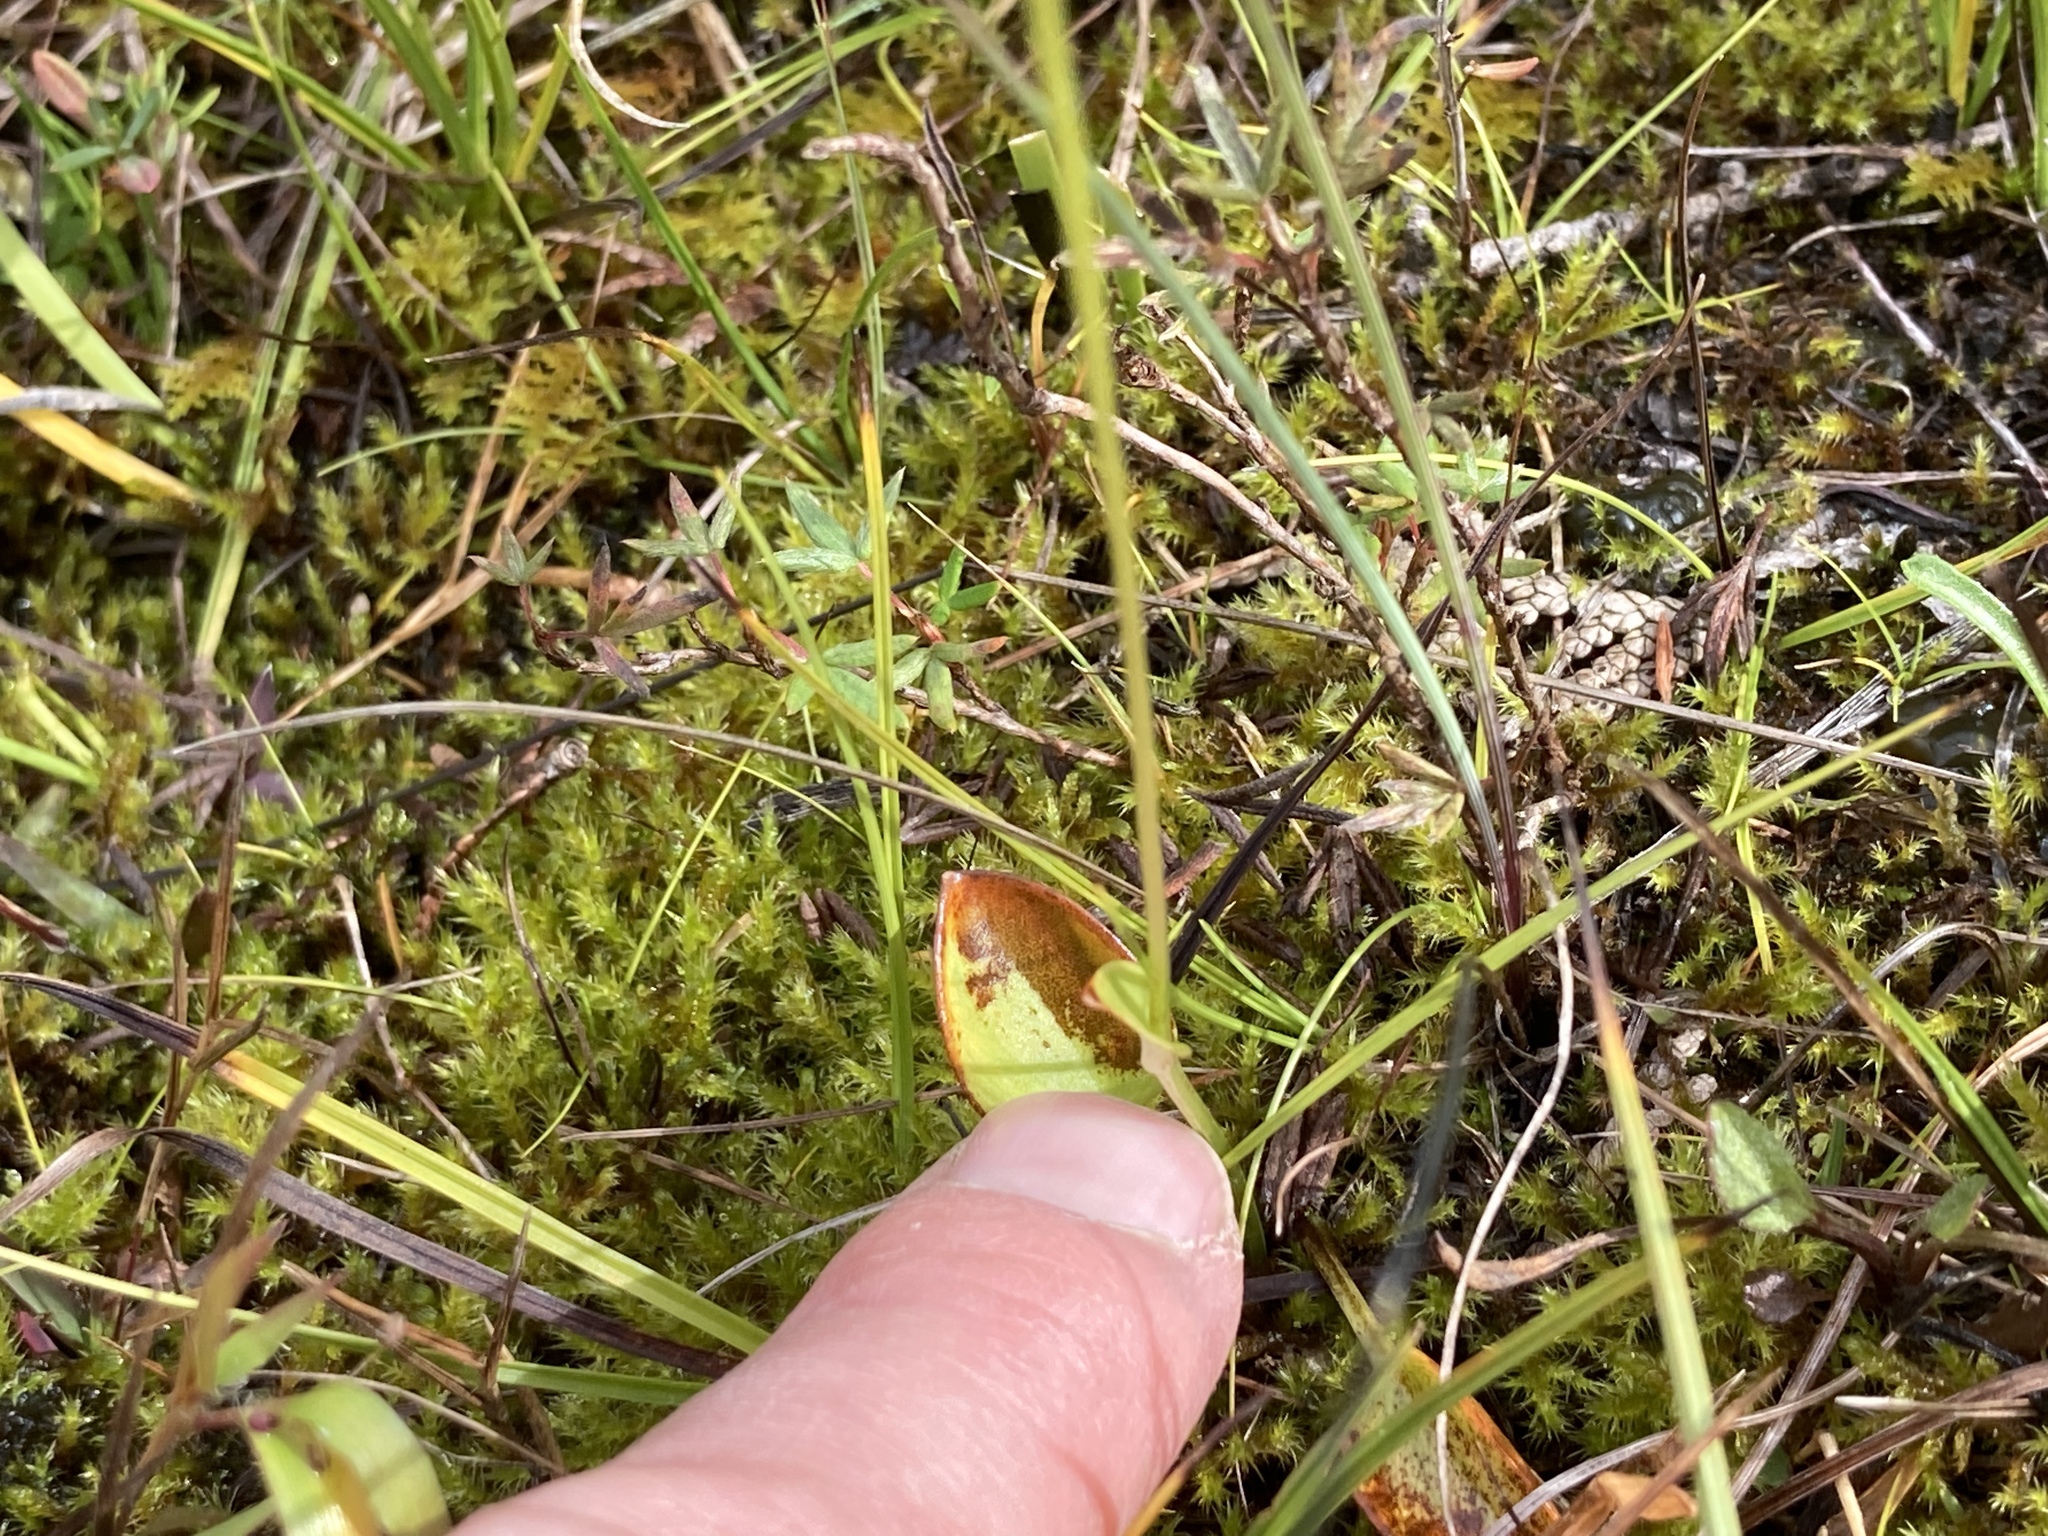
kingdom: Plantae
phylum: Tracheophyta
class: Magnoliopsida
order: Celastrales
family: Parnassiaceae
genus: Parnassia
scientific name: Parnassia glauca
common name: American grass-of-parnassus
